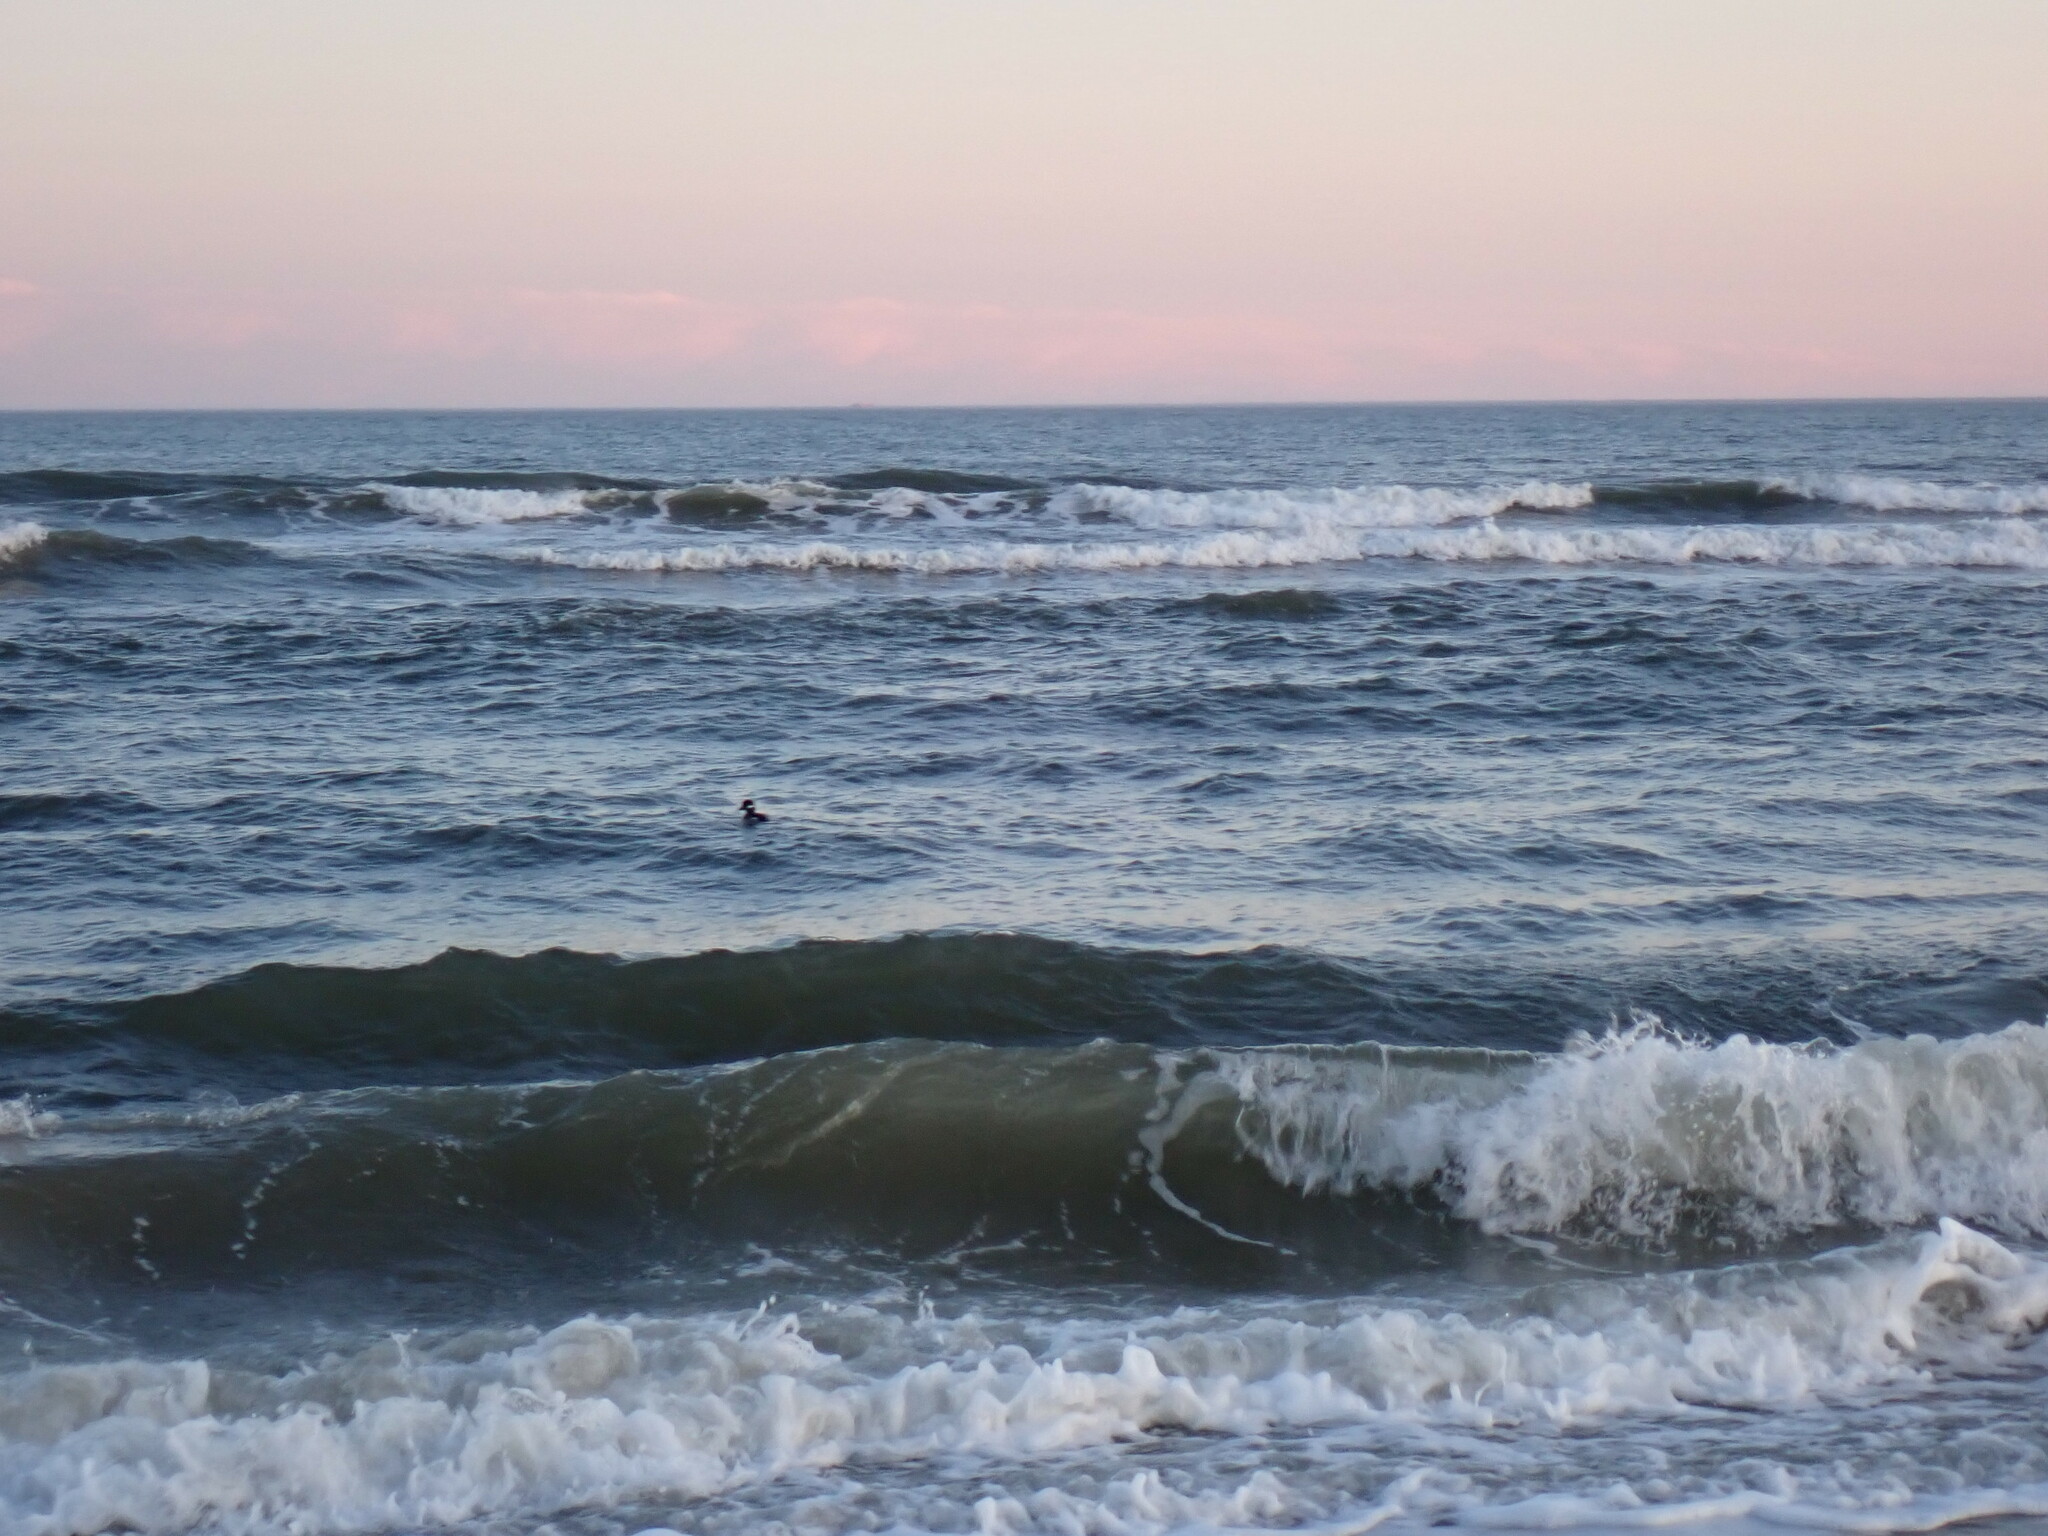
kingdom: Animalia
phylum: Chordata
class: Aves
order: Anseriformes
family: Anatidae
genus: Bucephala
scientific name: Bucephala albeola
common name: Bufflehead
